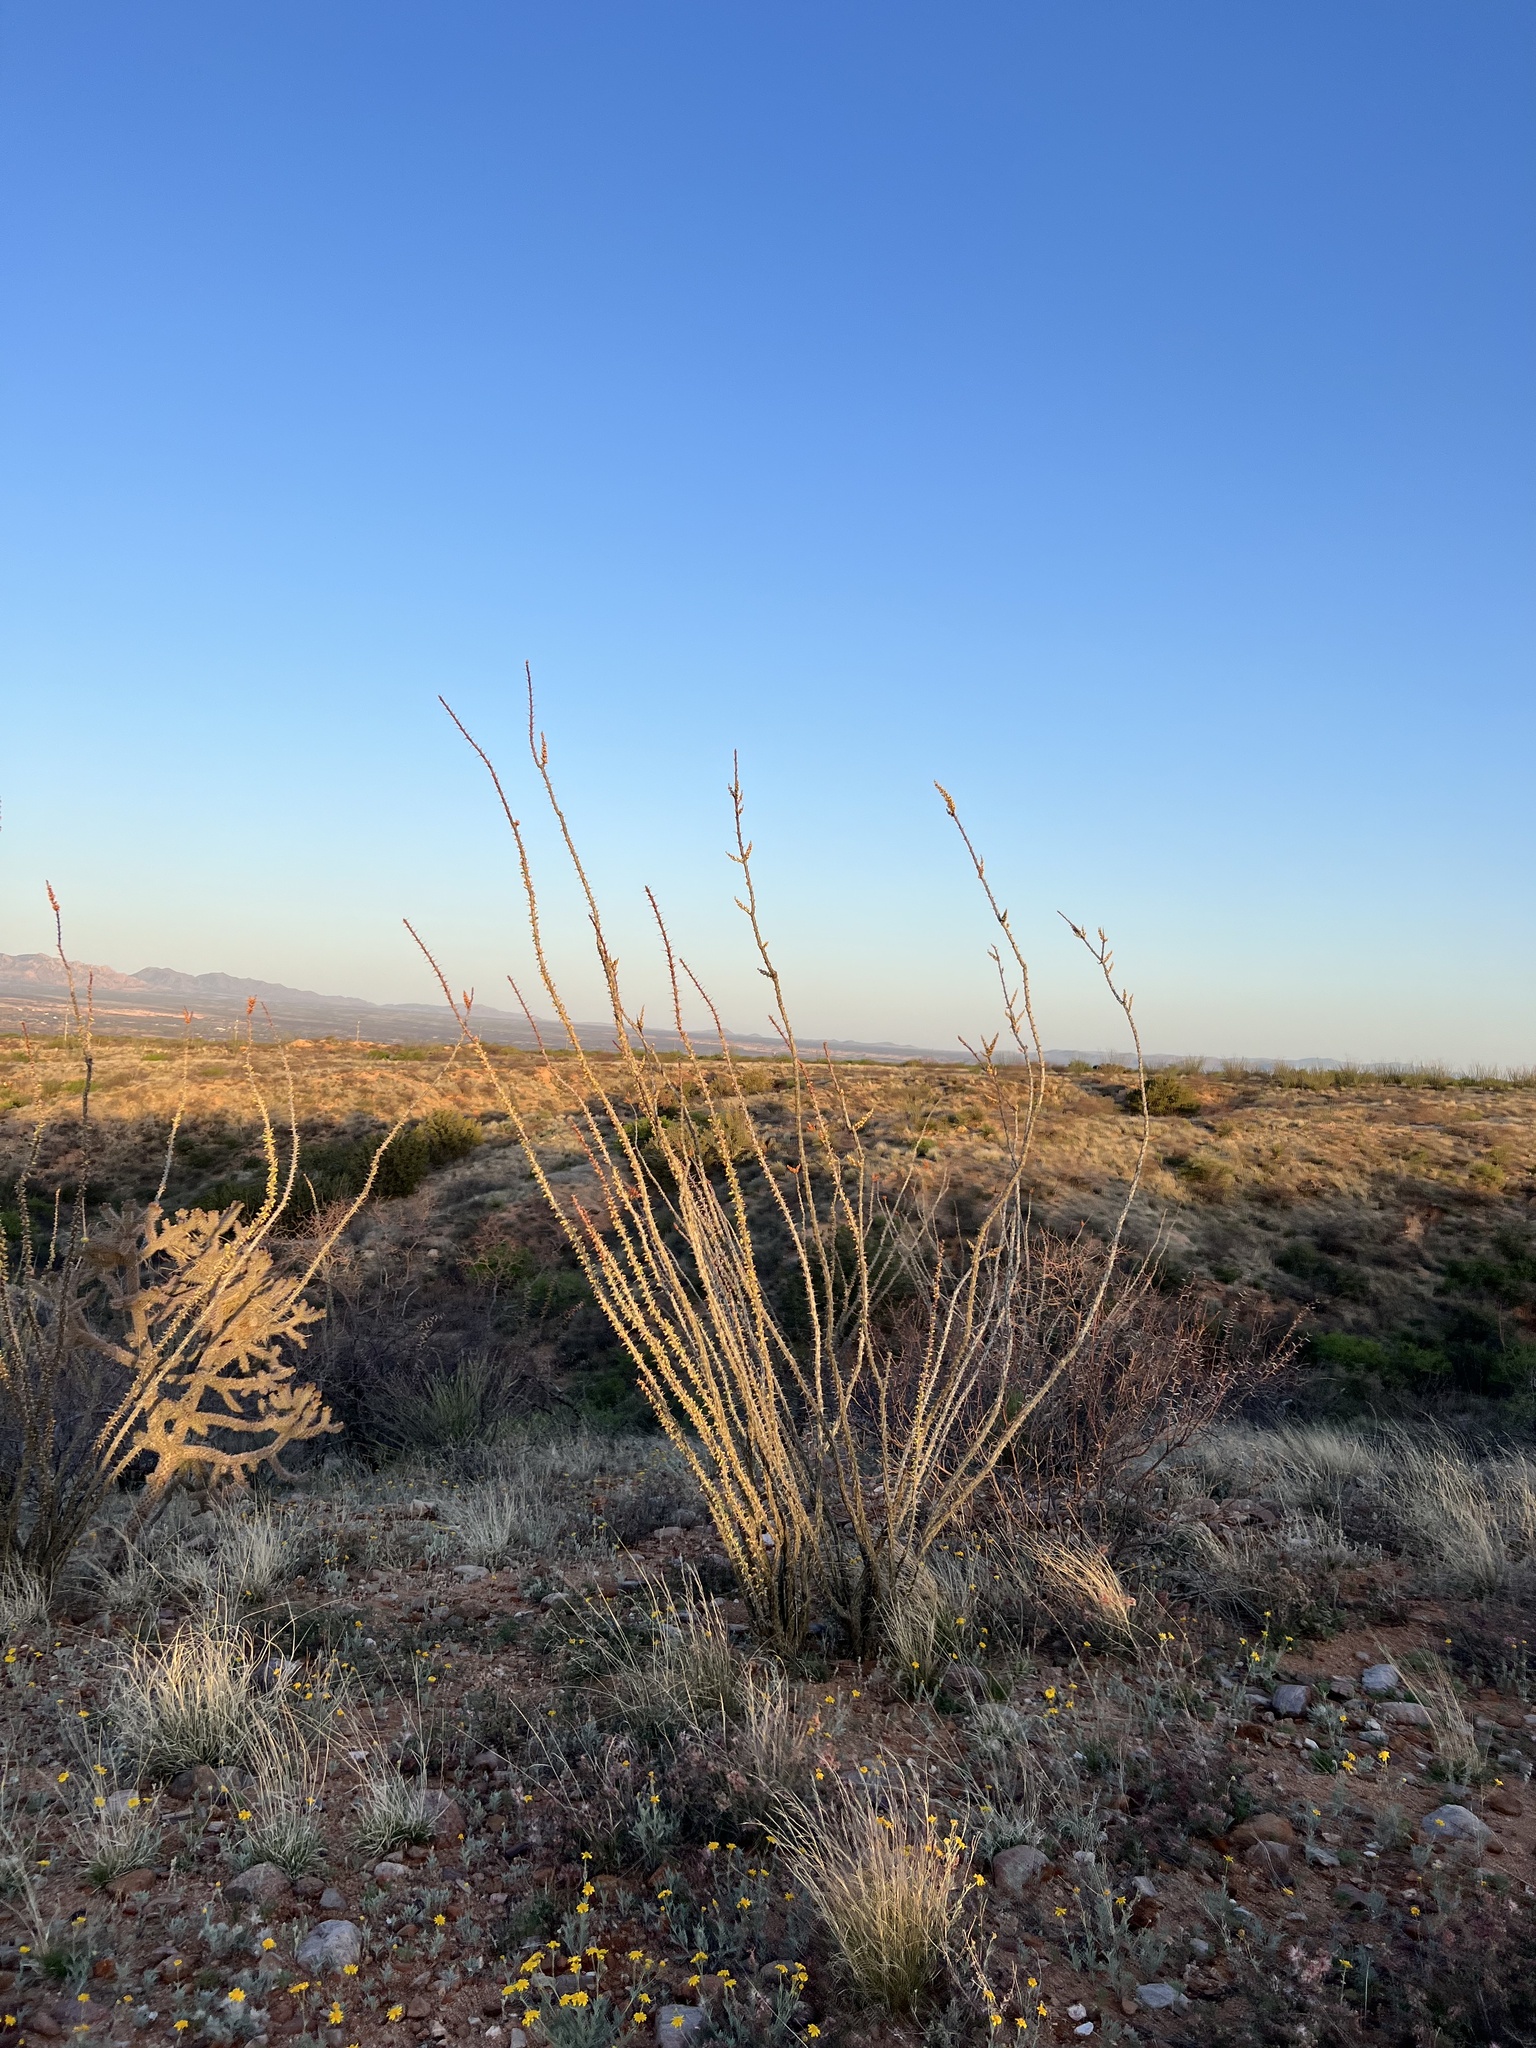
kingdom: Plantae
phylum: Tracheophyta
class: Magnoliopsida
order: Ericales
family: Fouquieriaceae
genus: Fouquieria
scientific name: Fouquieria splendens
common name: Vine-cactus
